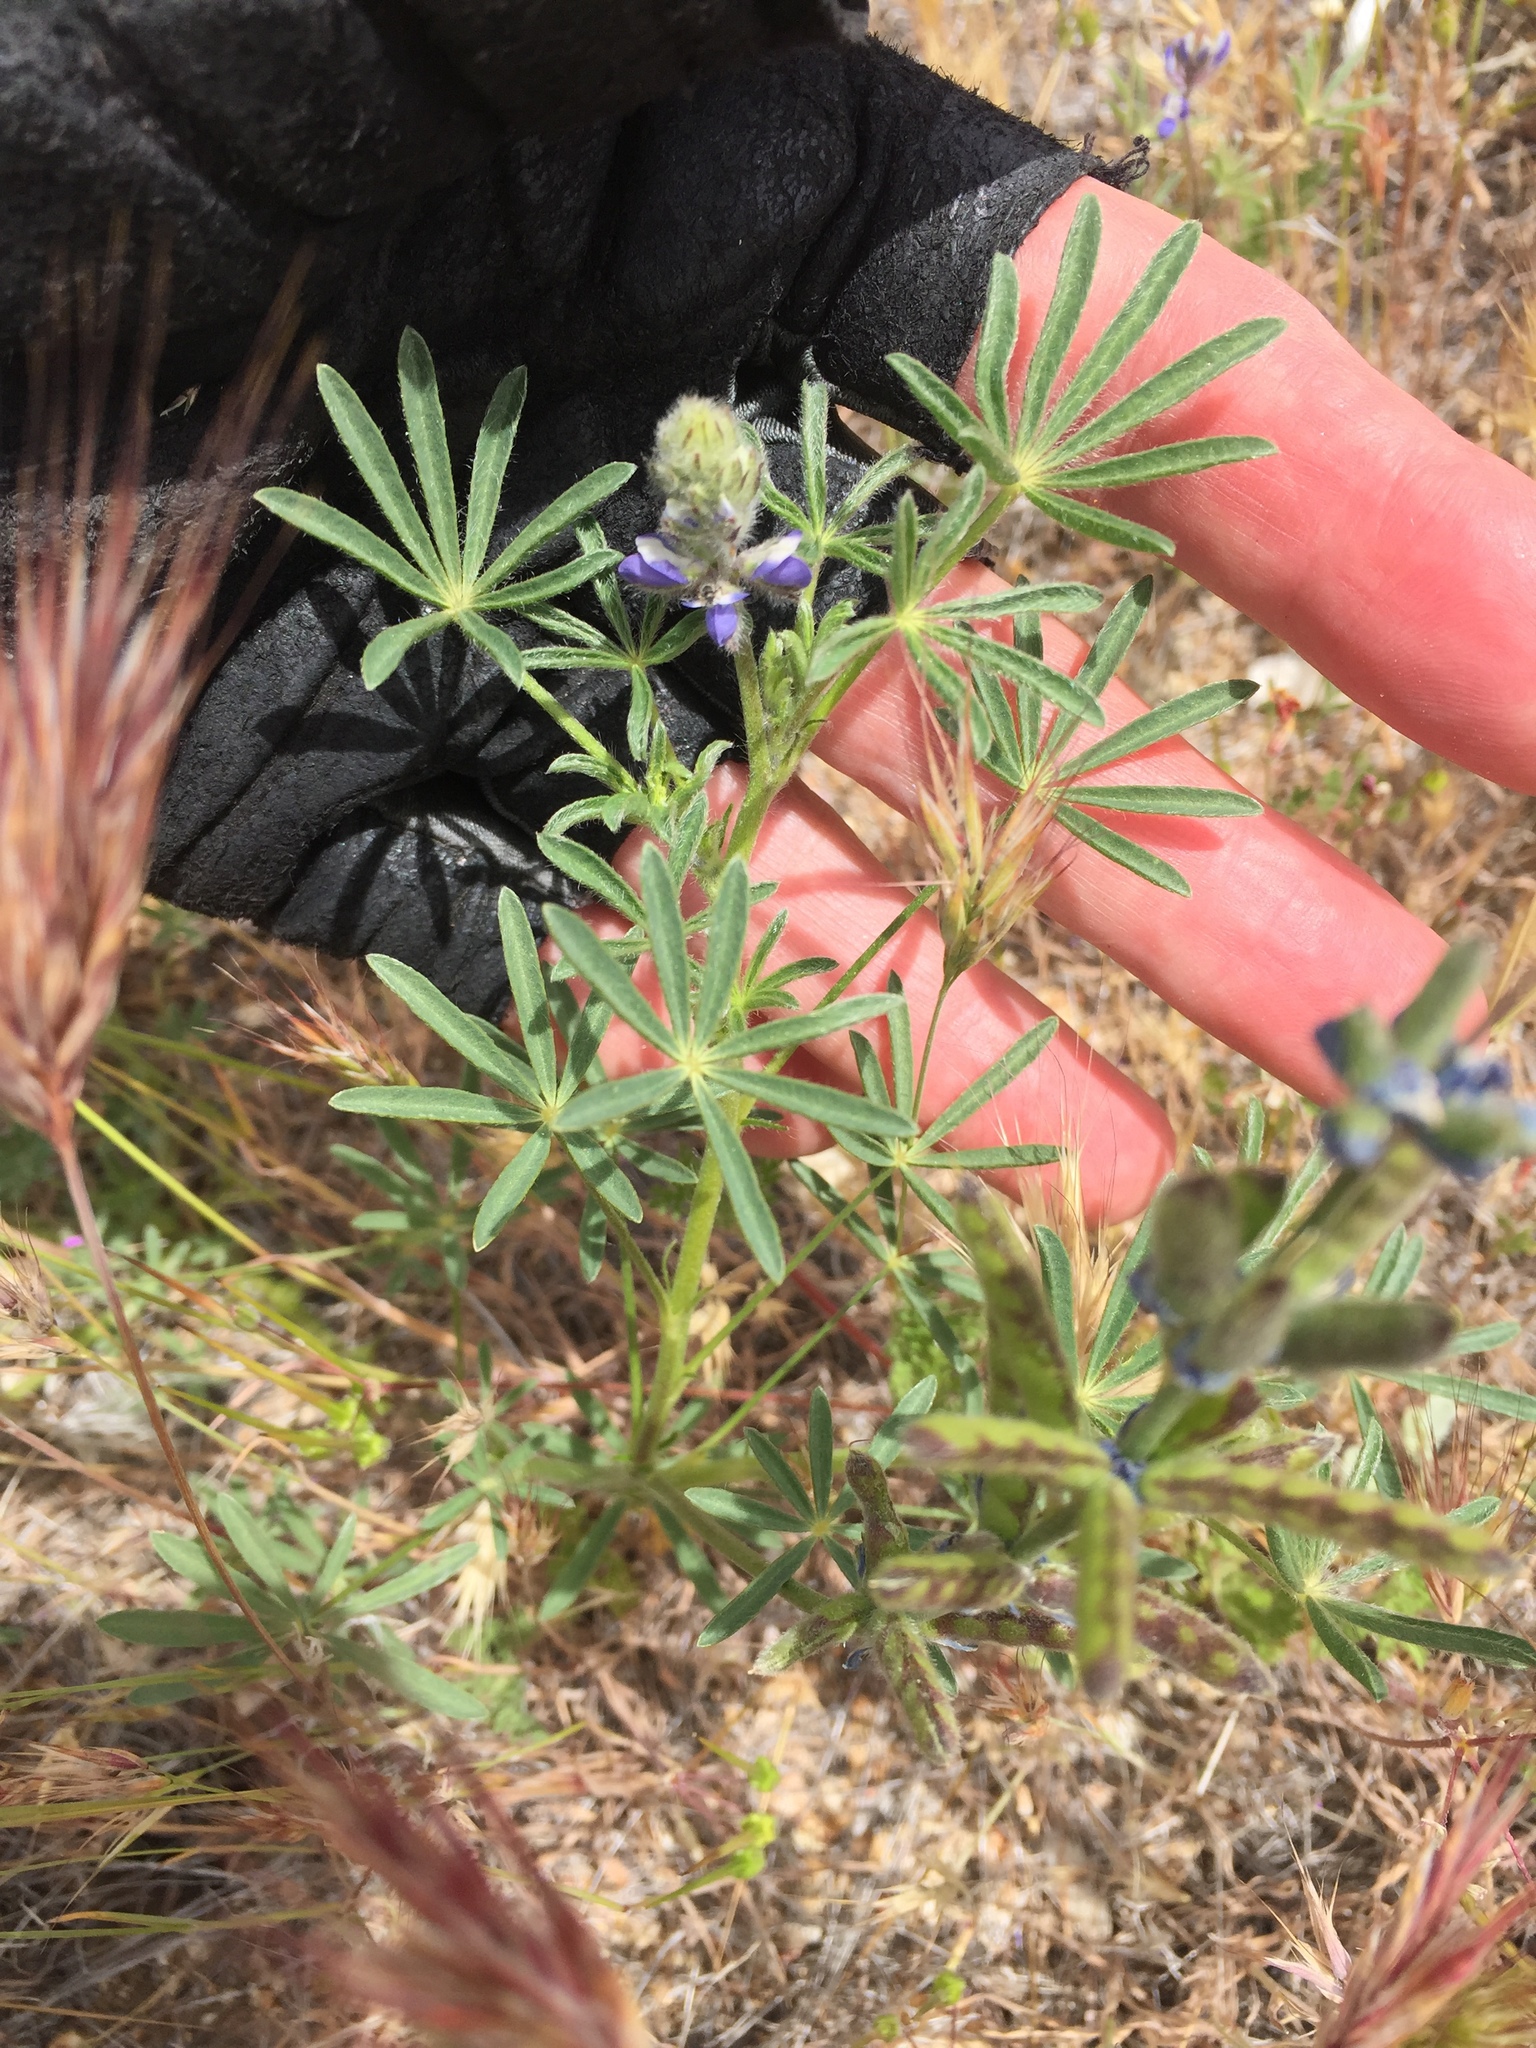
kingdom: Plantae
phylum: Tracheophyta
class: Magnoliopsida
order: Fabales
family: Fabaceae
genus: Lupinus
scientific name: Lupinus bicolor
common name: Miniature lupine
